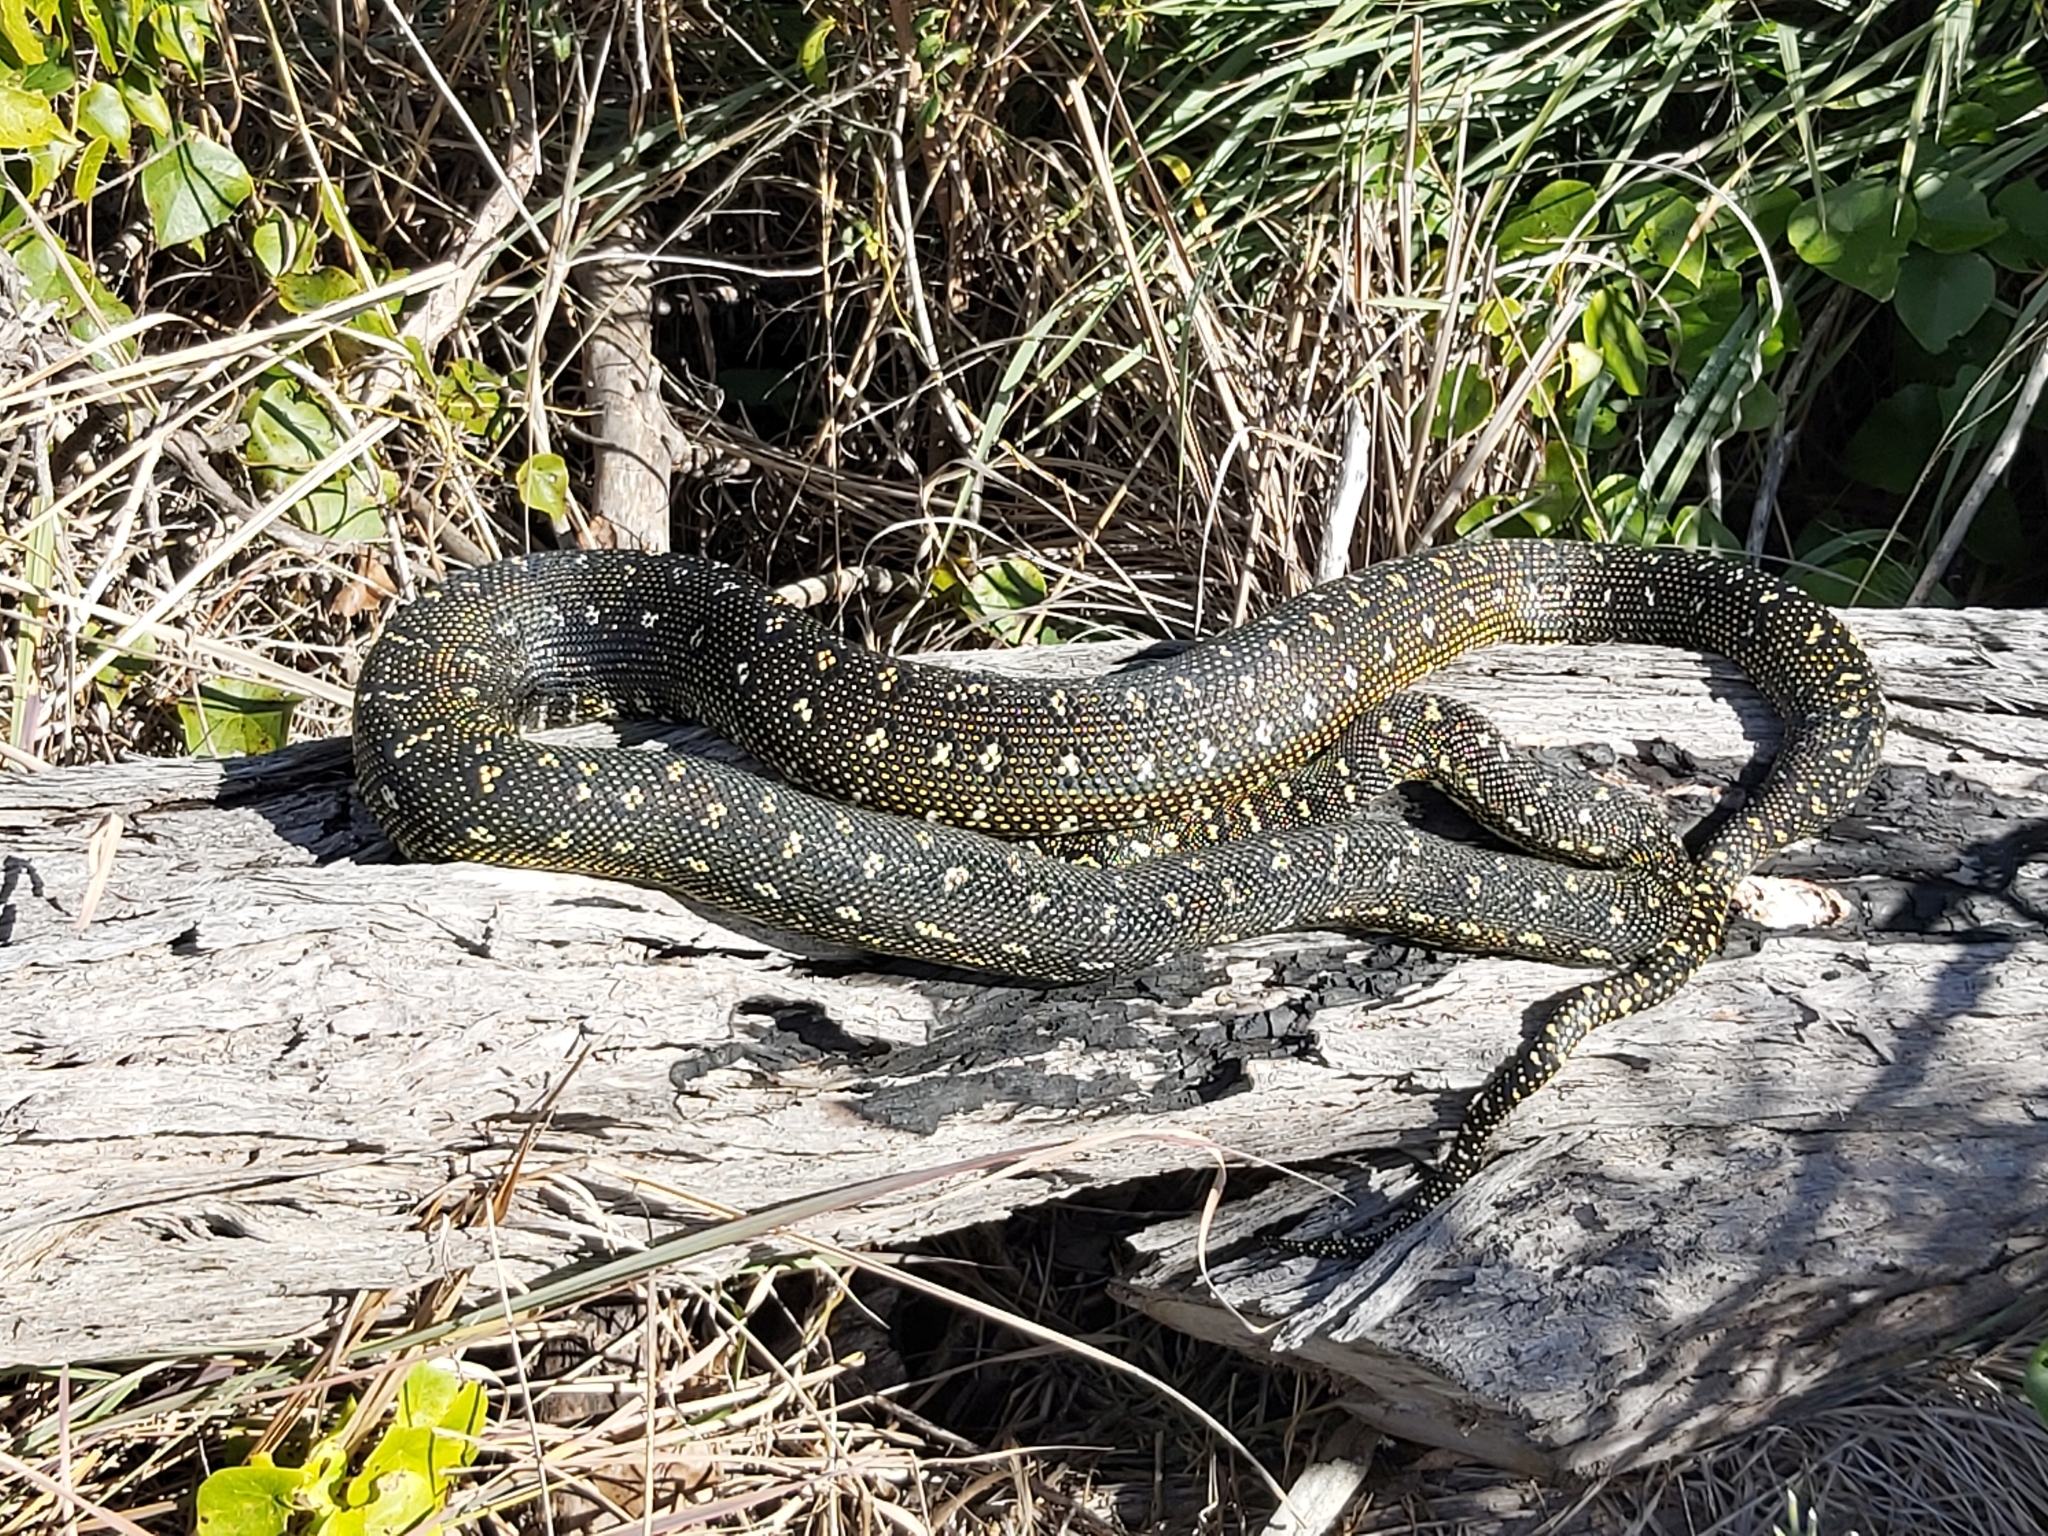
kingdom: Animalia
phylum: Chordata
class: Squamata
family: Pythonidae
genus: Morelia
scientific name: Morelia spilota
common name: Carpet python
